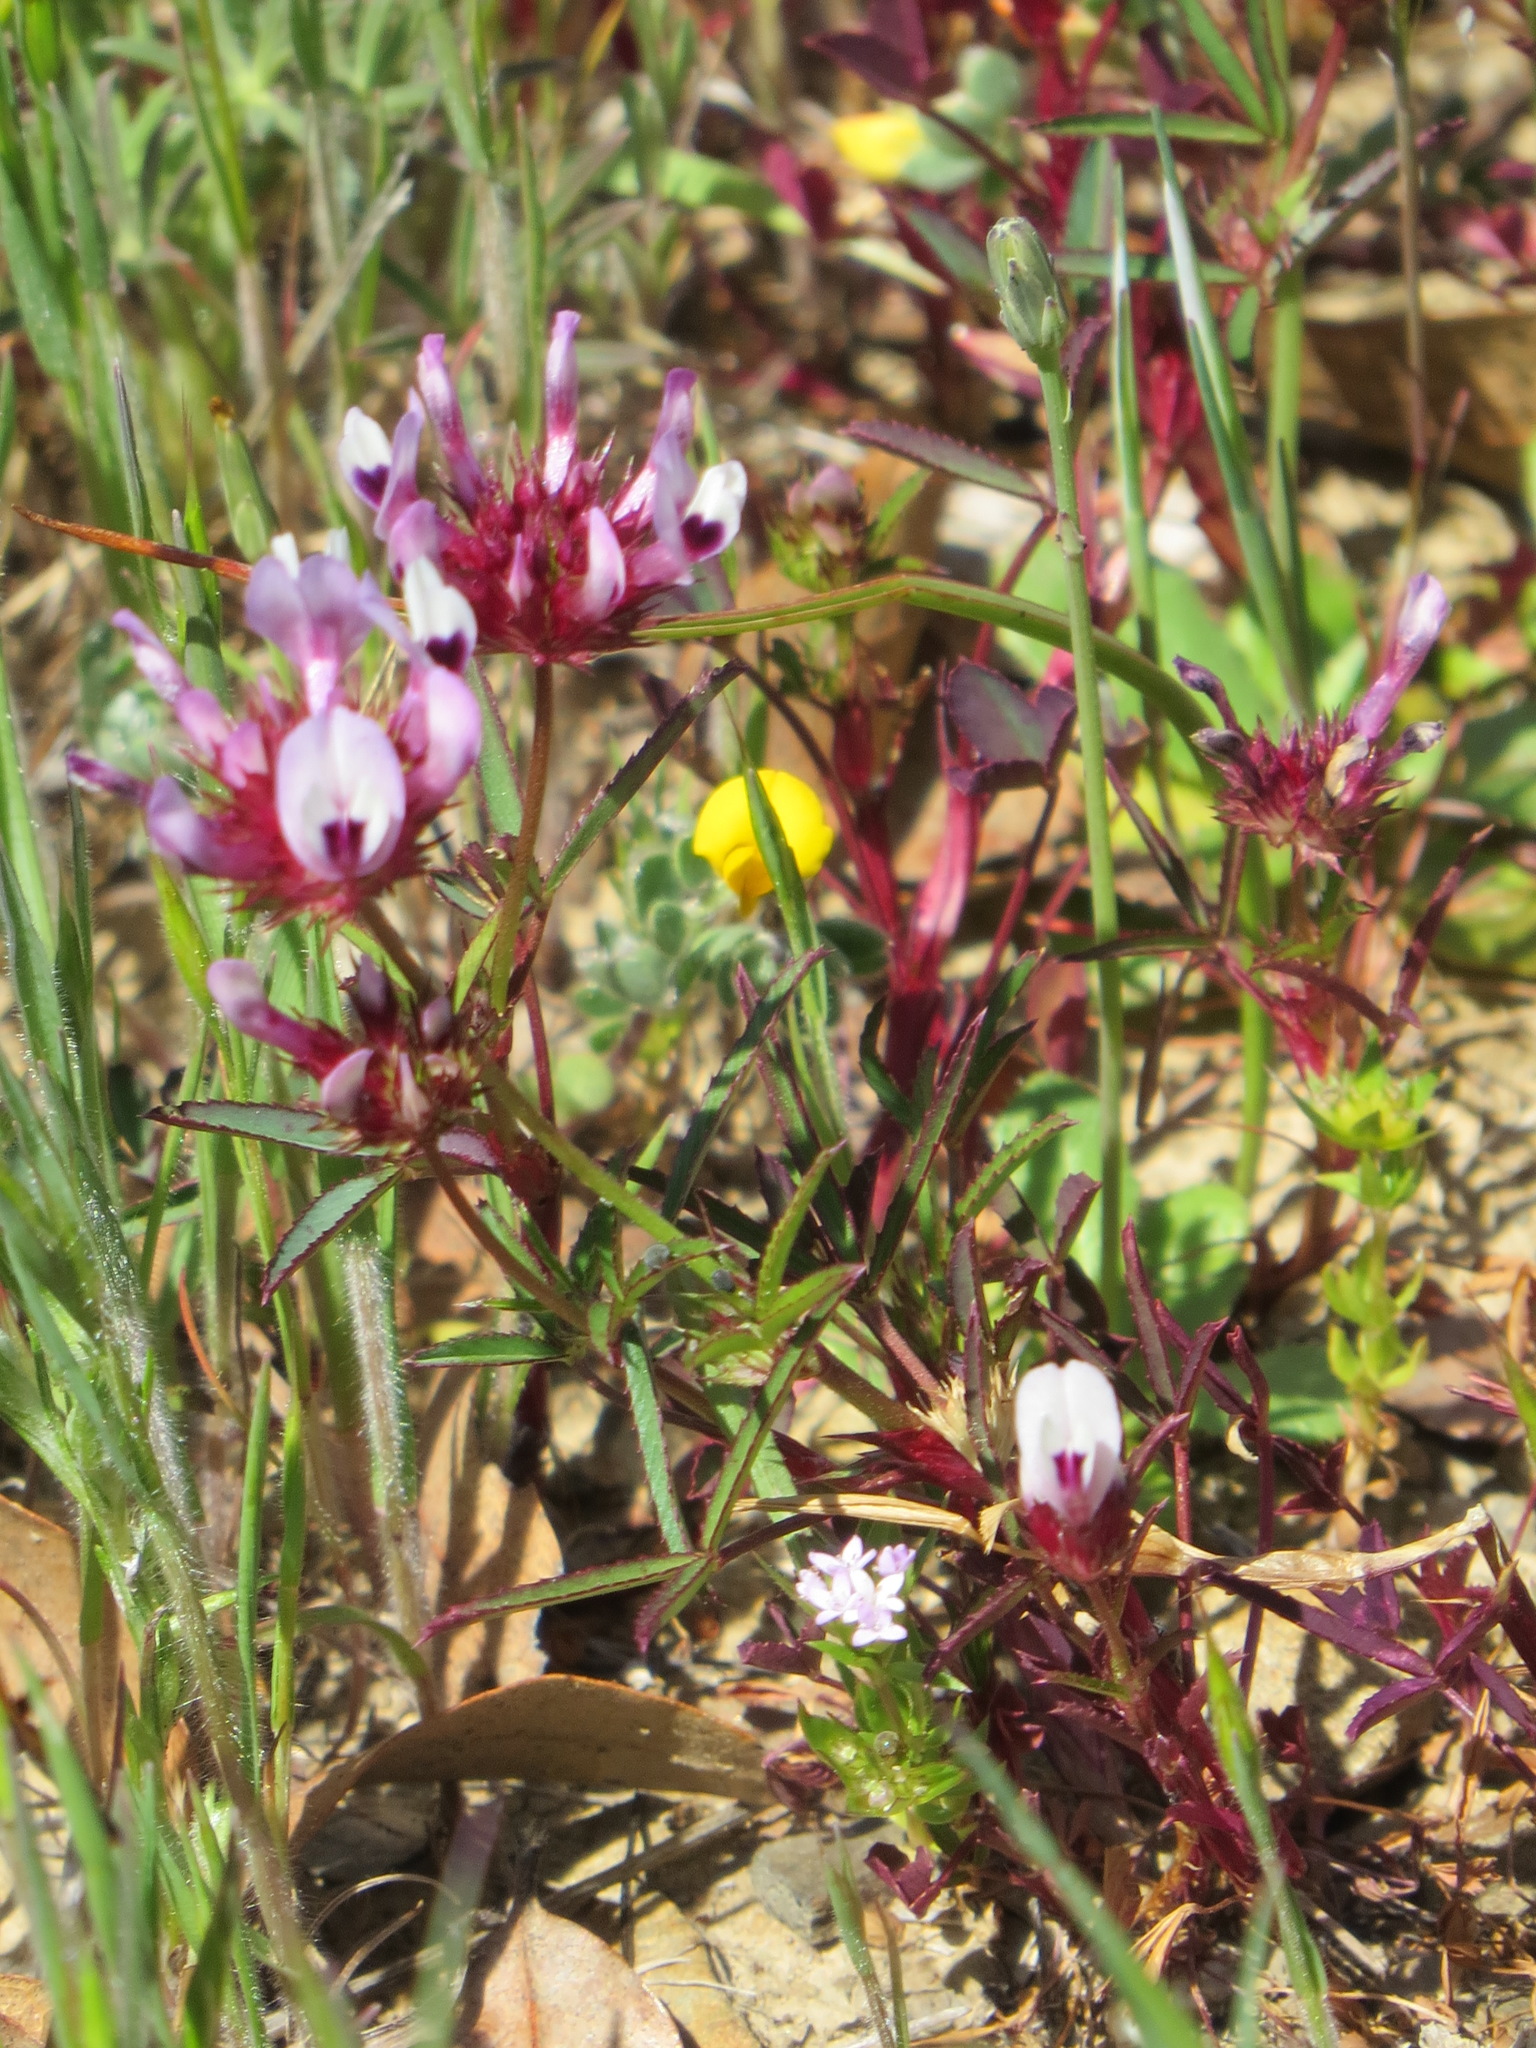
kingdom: Plantae
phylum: Tracheophyta
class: Magnoliopsida
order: Fabales
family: Fabaceae
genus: Trifolium
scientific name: Trifolium willdenovii
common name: Tomcat clover
